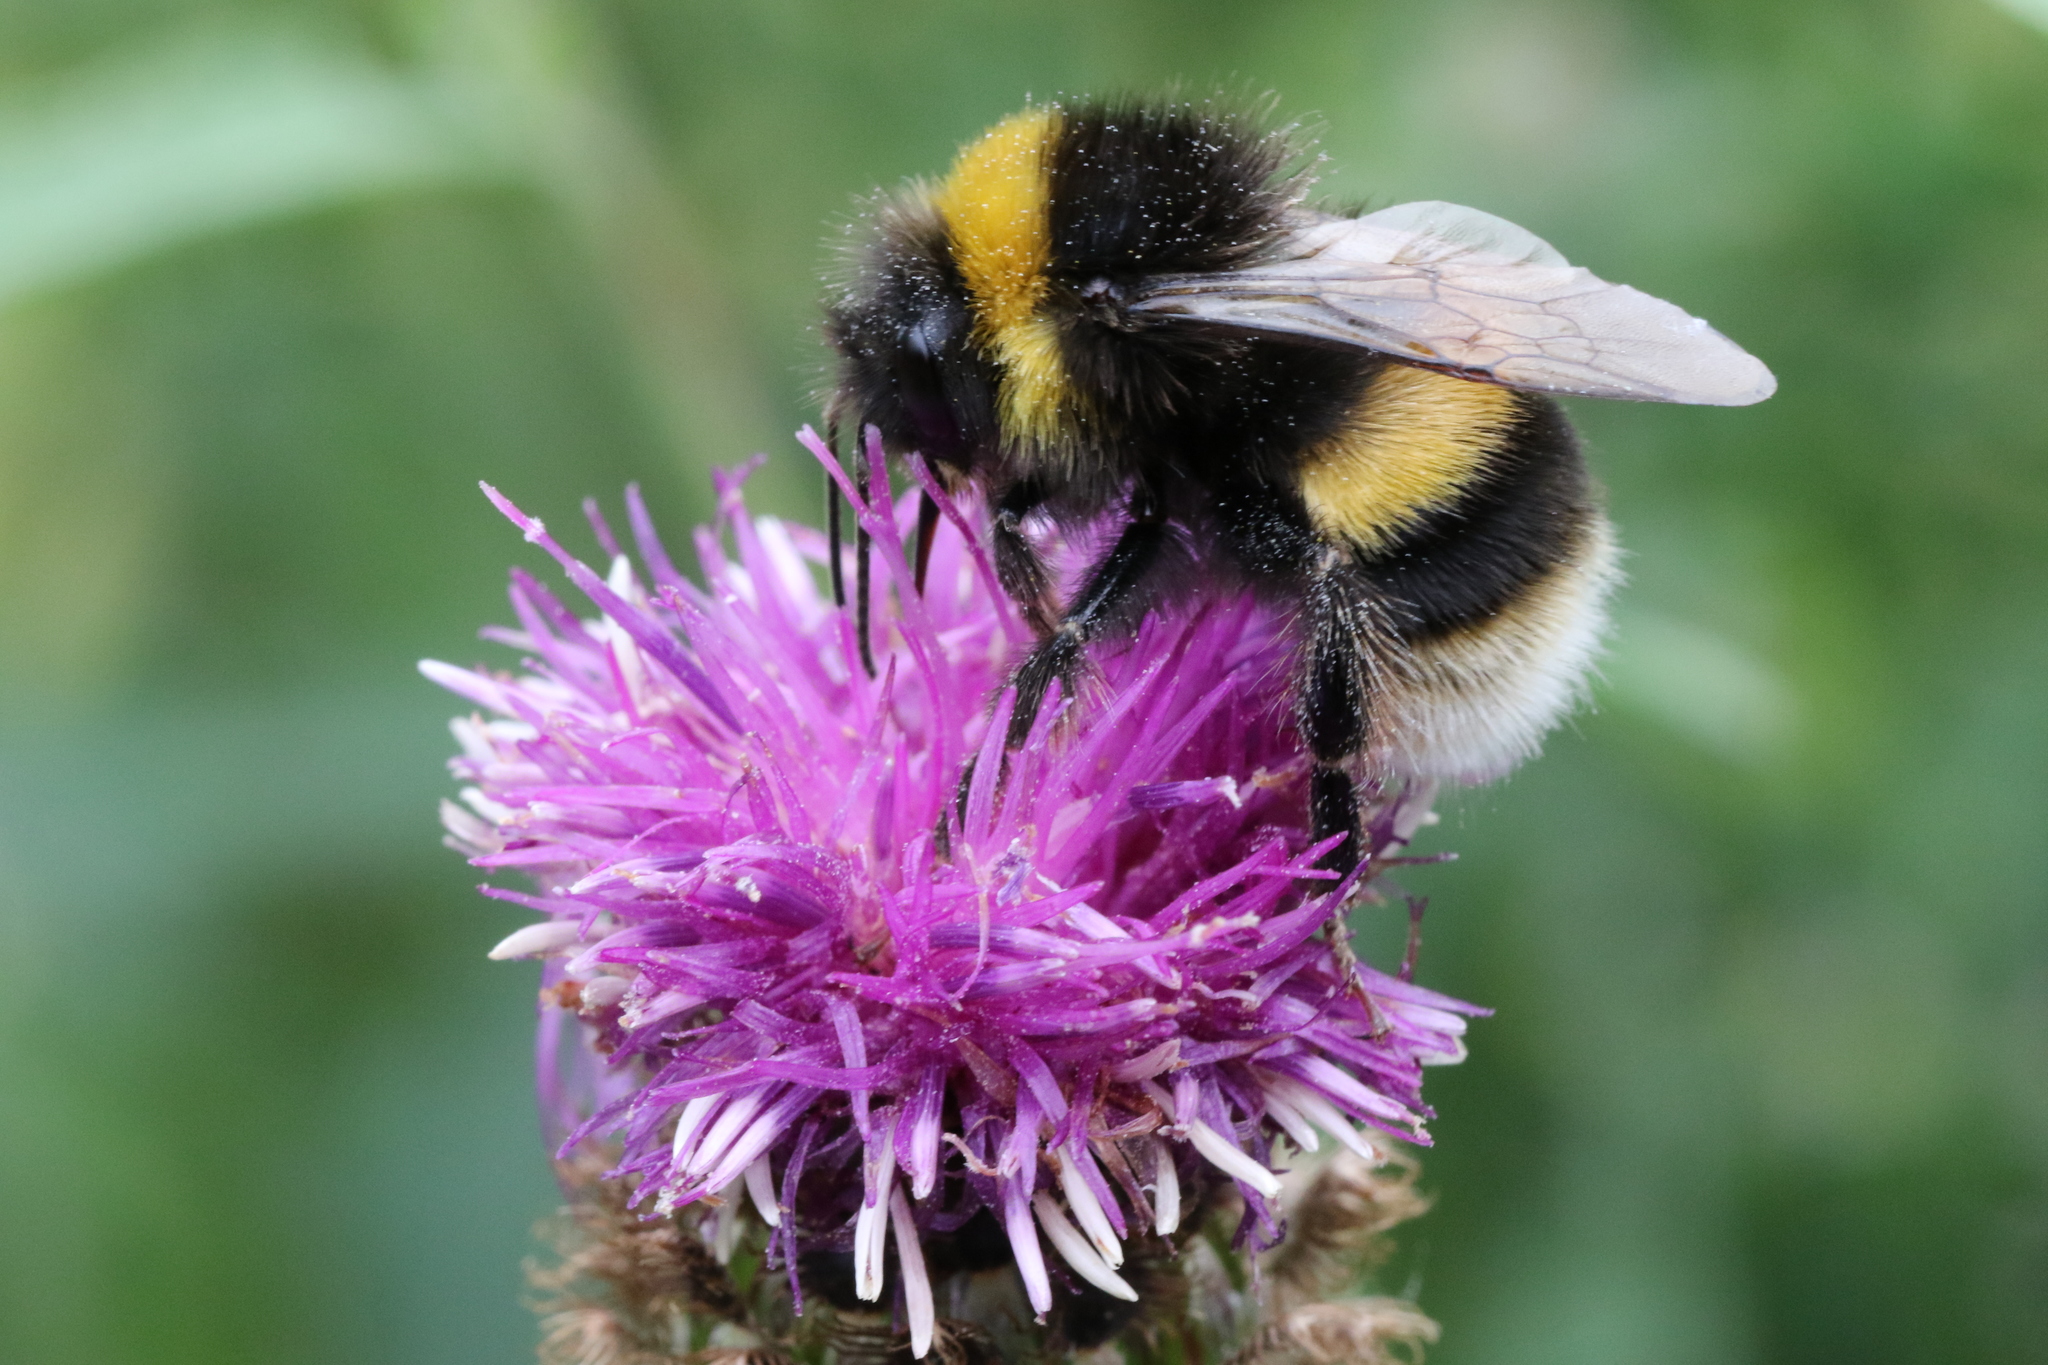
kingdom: Animalia
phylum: Arthropoda
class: Insecta
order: Hymenoptera
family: Apidae
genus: Bombus
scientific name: Bombus terrestris
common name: Buff-tailed bumblebee
